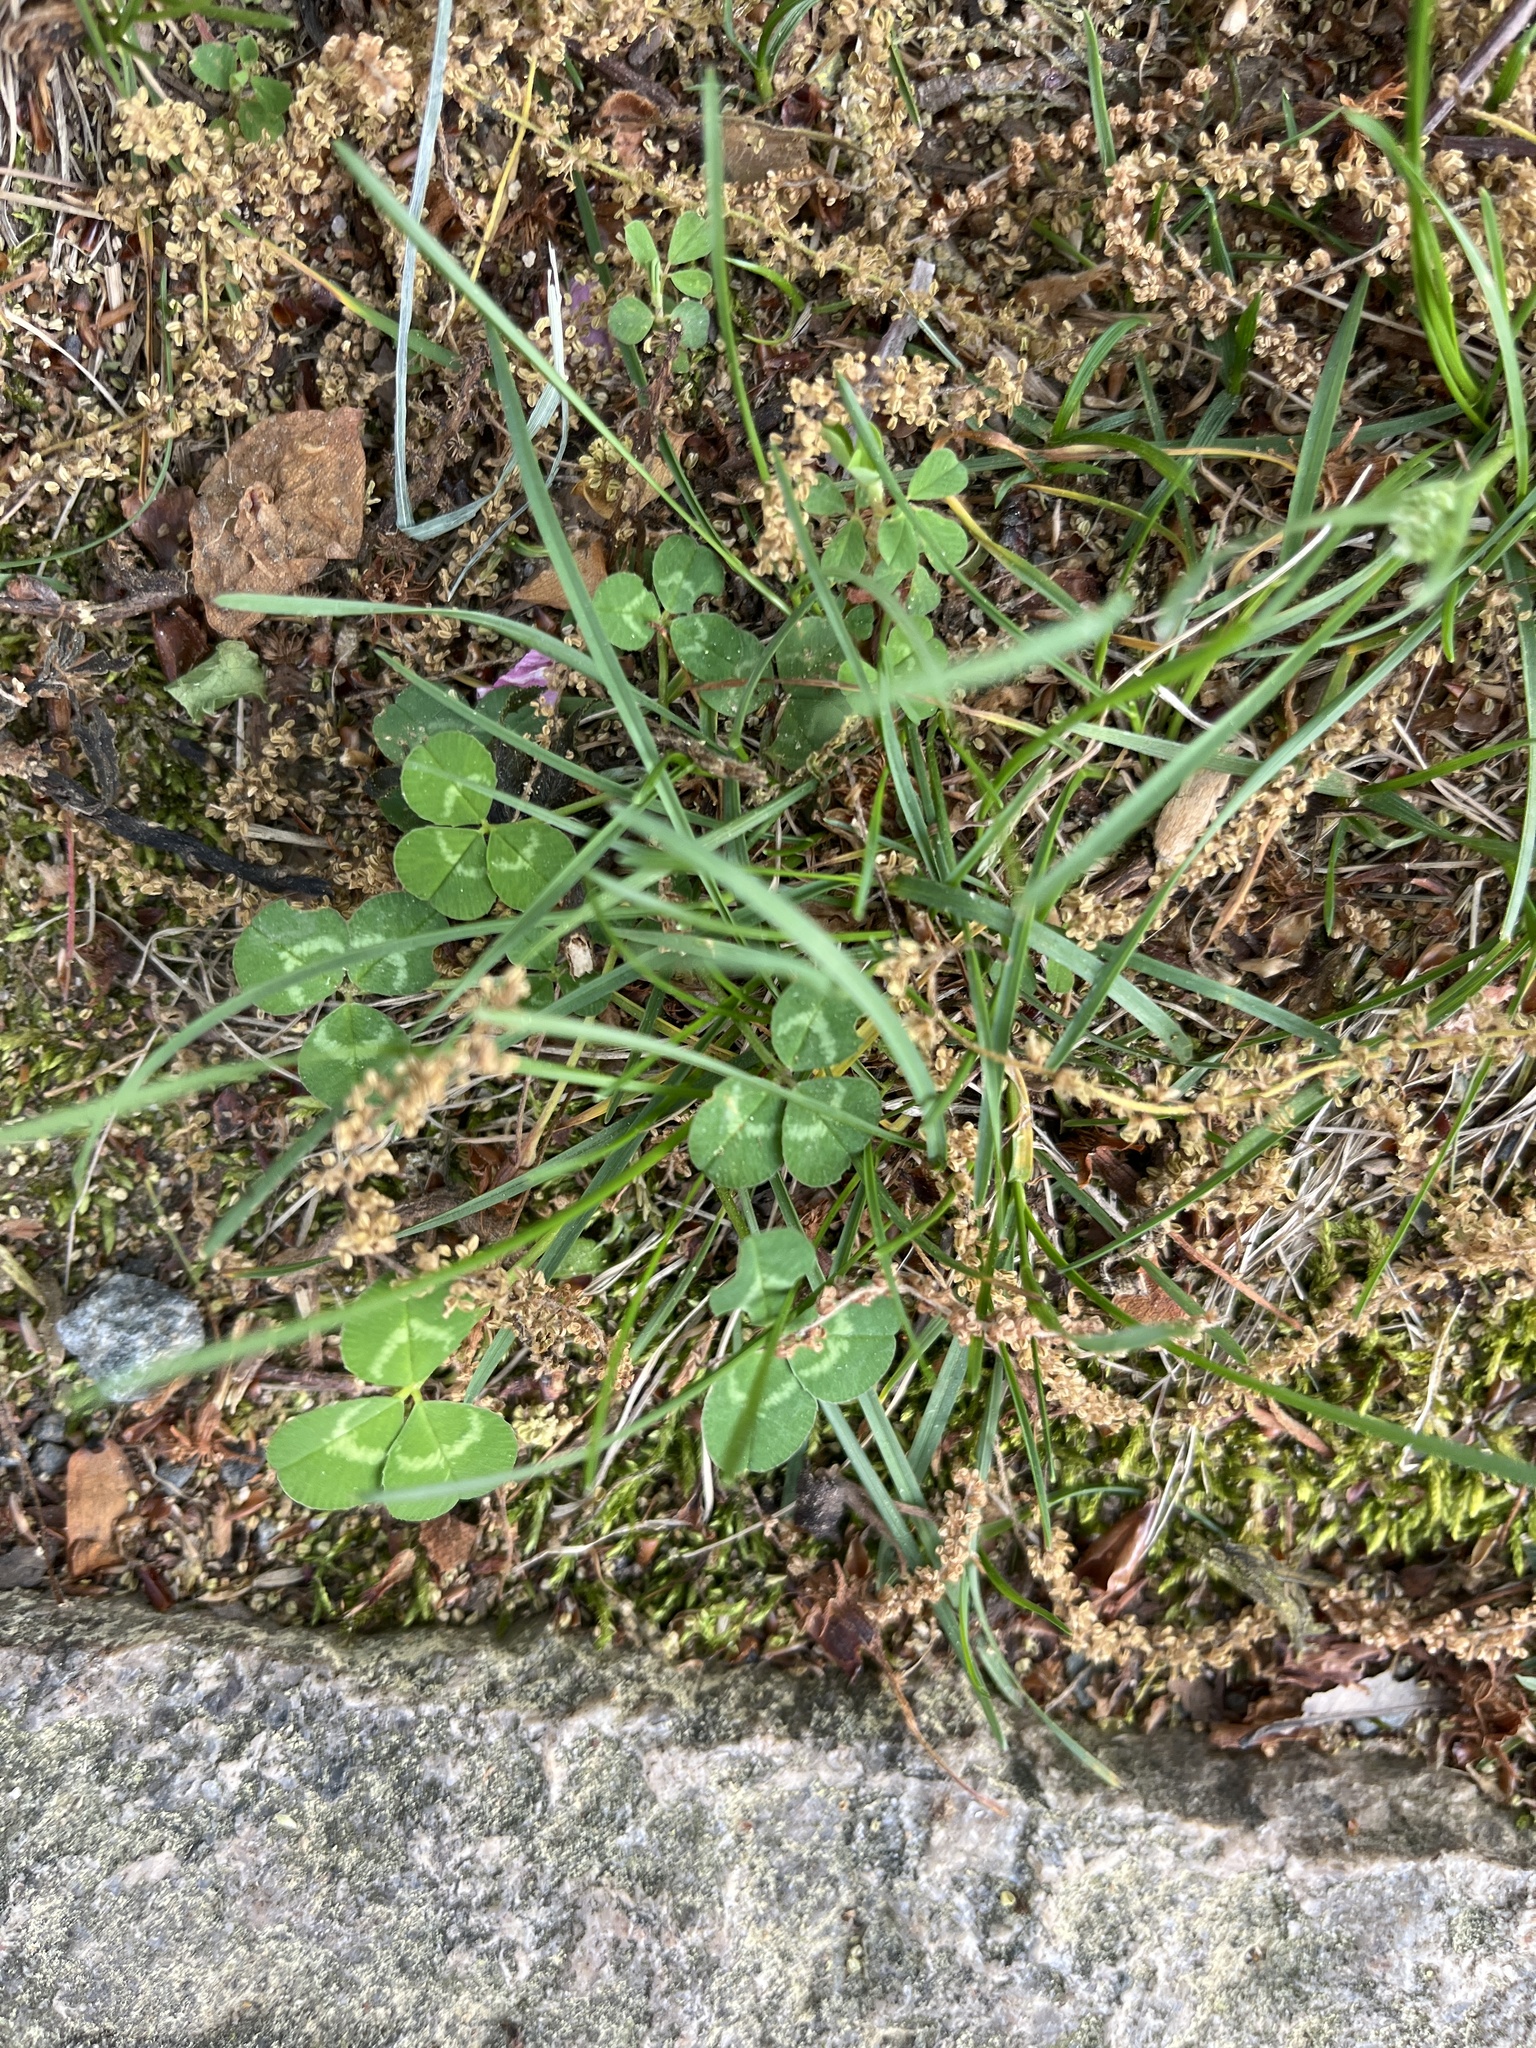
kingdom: Plantae
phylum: Tracheophyta
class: Magnoliopsida
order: Fabales
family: Fabaceae
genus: Trifolium
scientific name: Trifolium repens
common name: White clover
